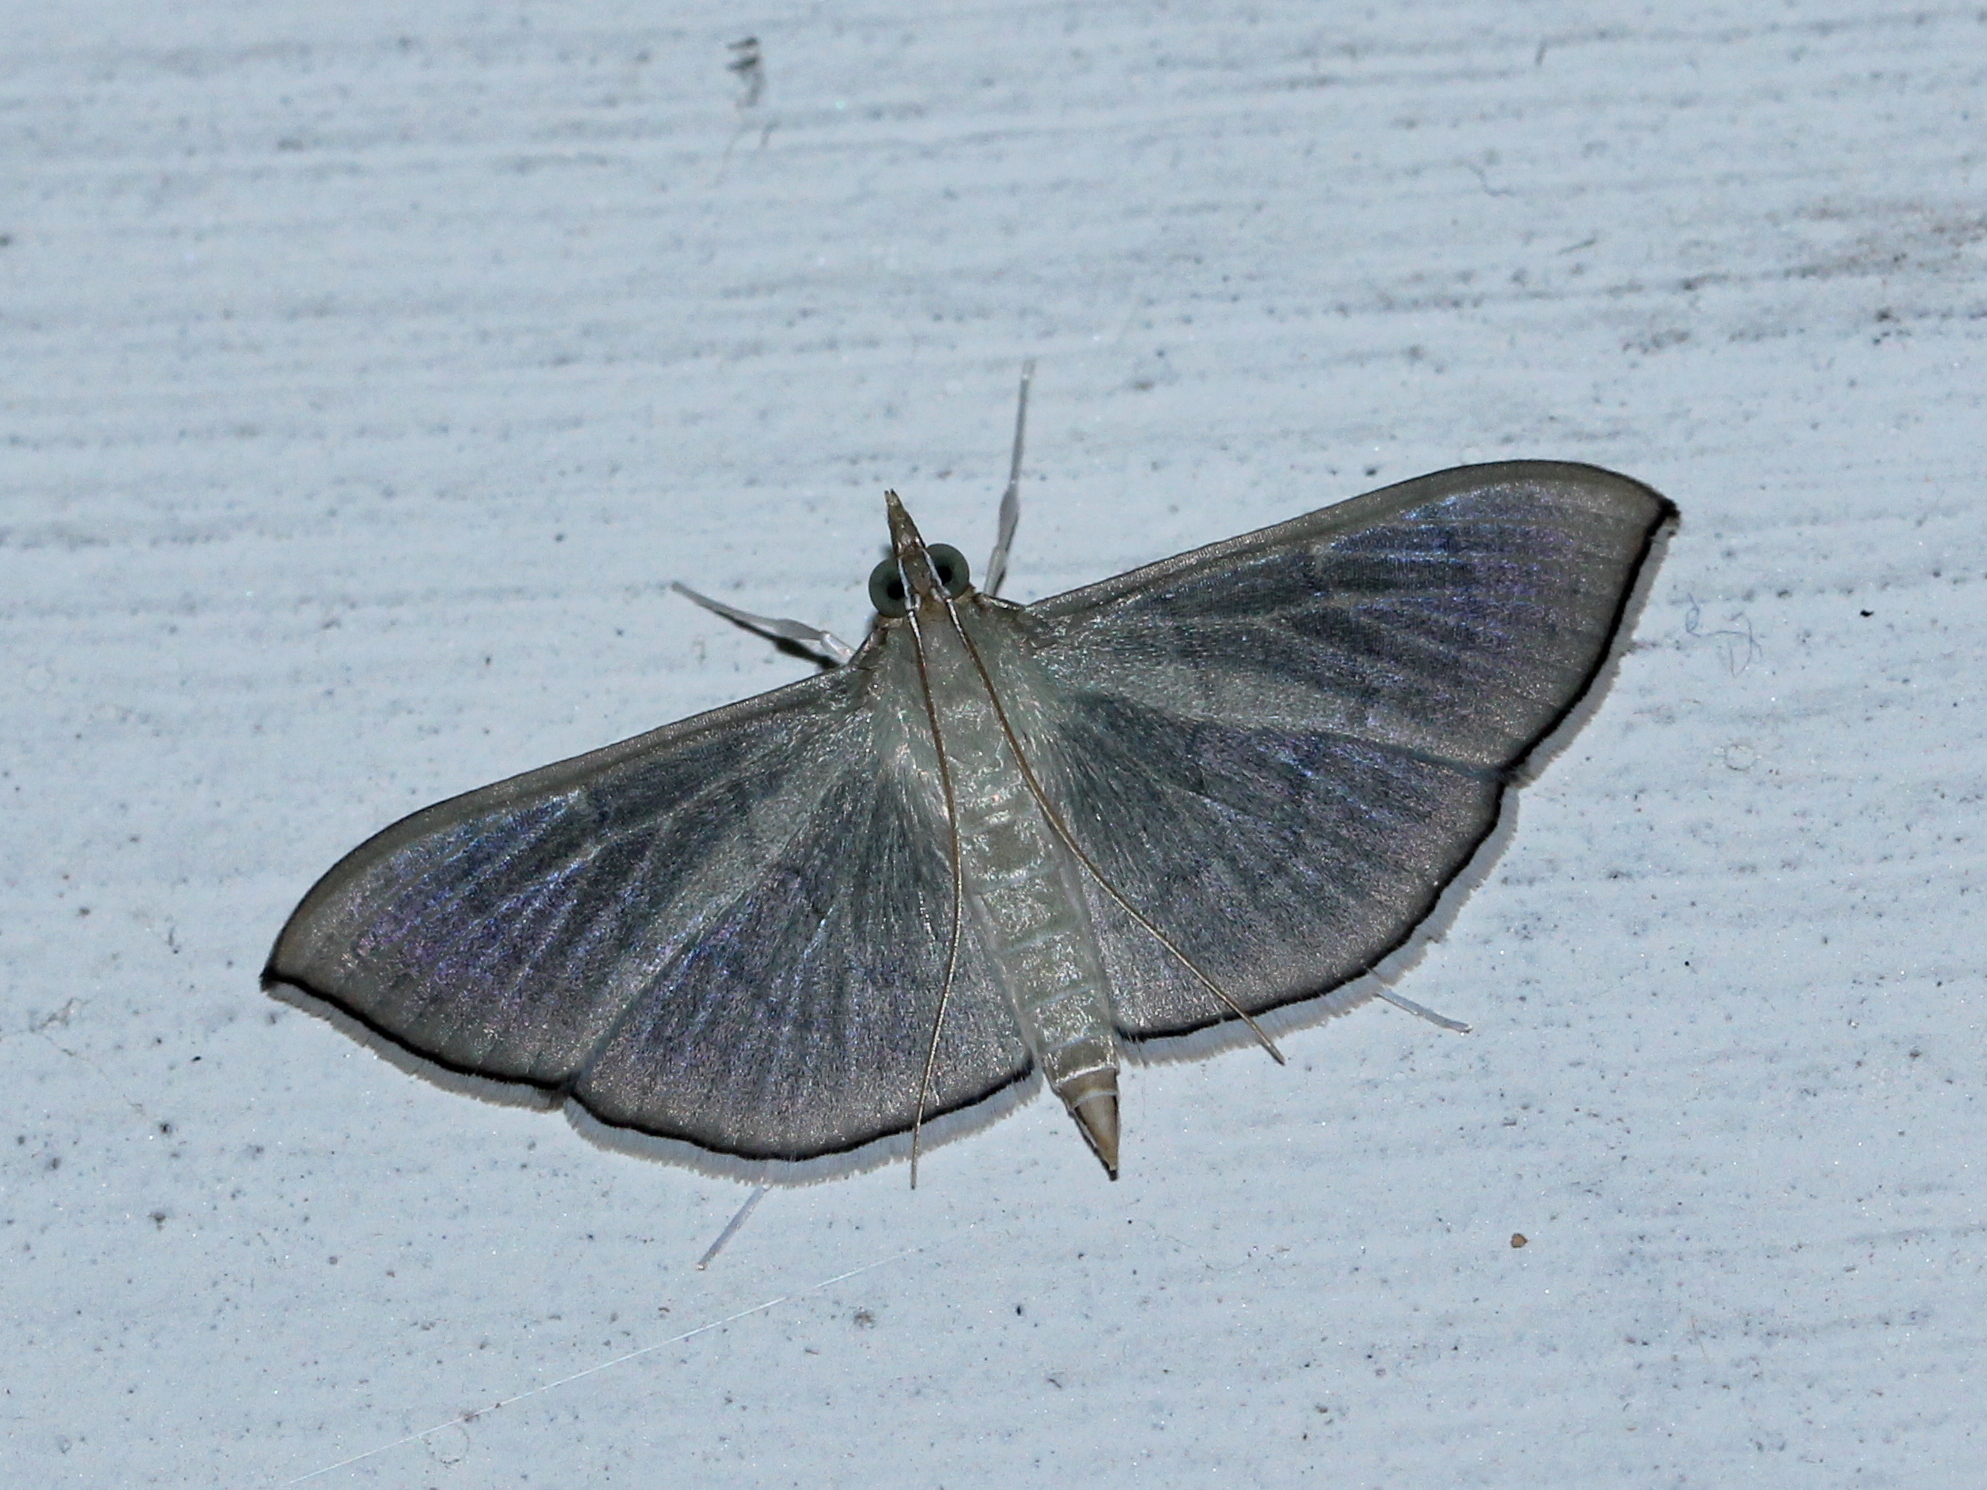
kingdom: Animalia
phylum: Arthropoda
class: Insecta
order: Lepidoptera
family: Crambidae
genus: Lamprophaia
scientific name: Lamprophaia ablactalis
